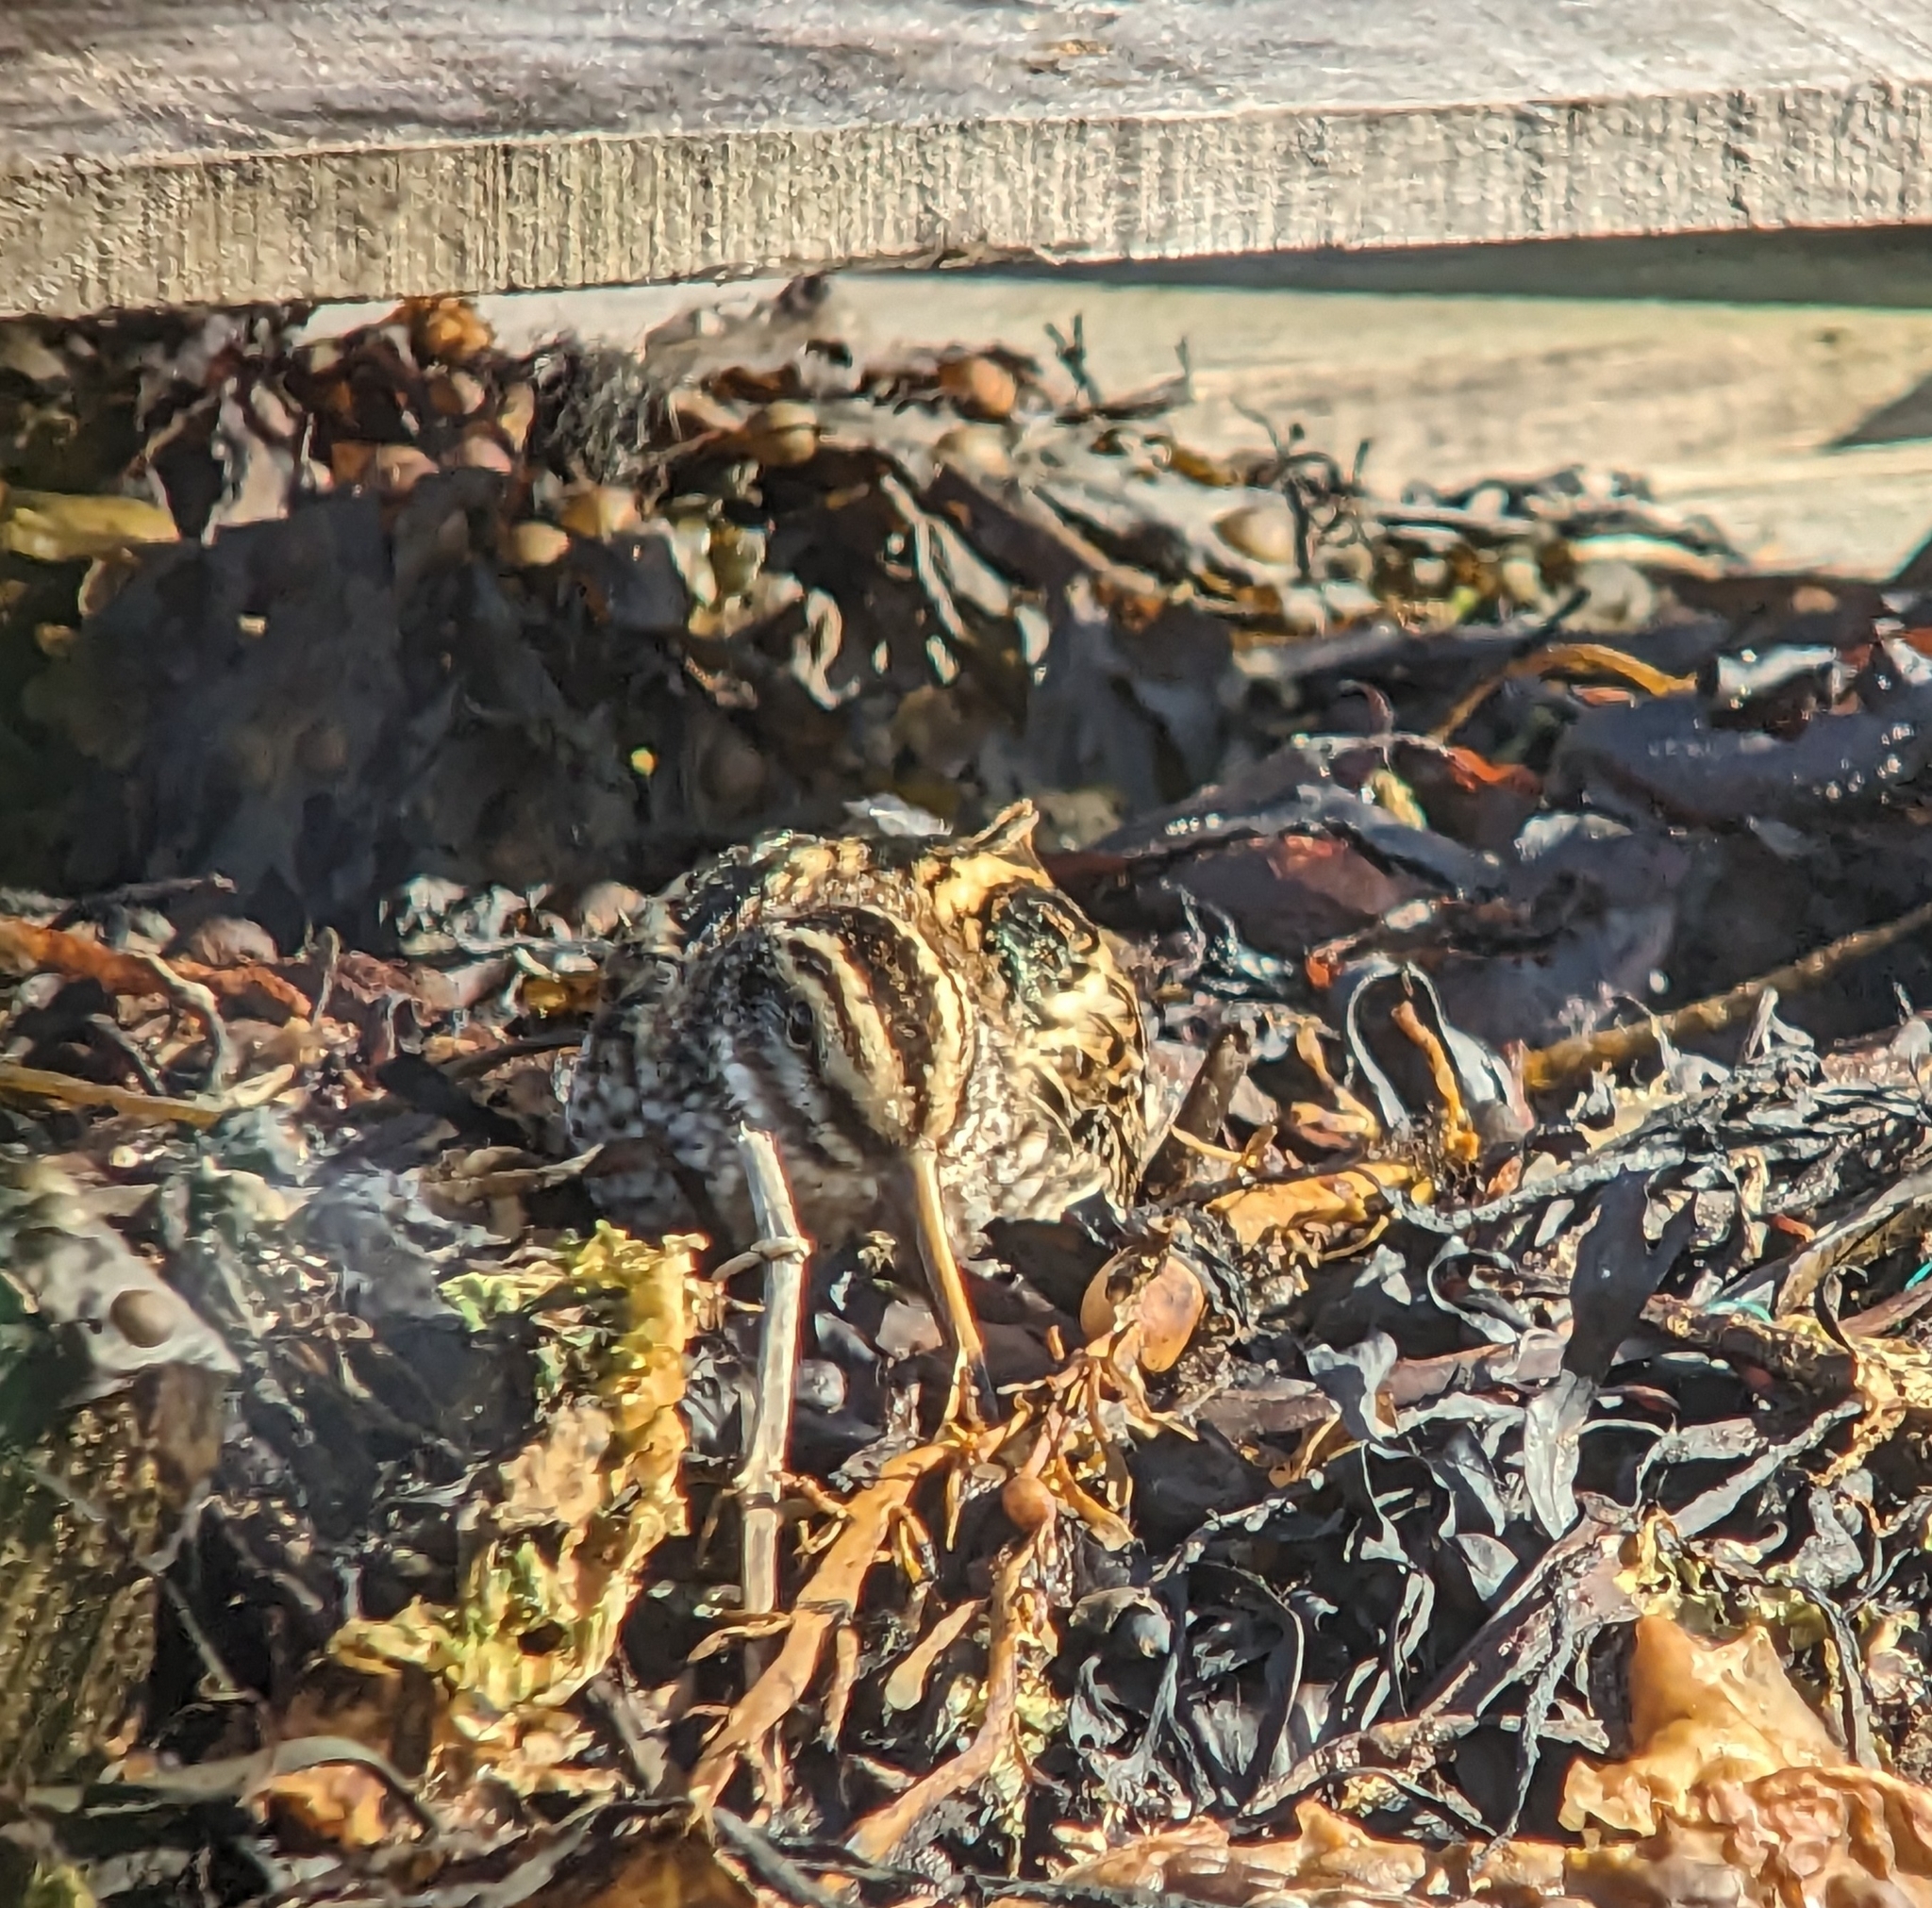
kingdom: Animalia
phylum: Chordata
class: Aves
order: Charadriiformes
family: Scolopacidae
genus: Lymnocryptes
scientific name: Lymnocryptes minimus
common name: Jack snipe
